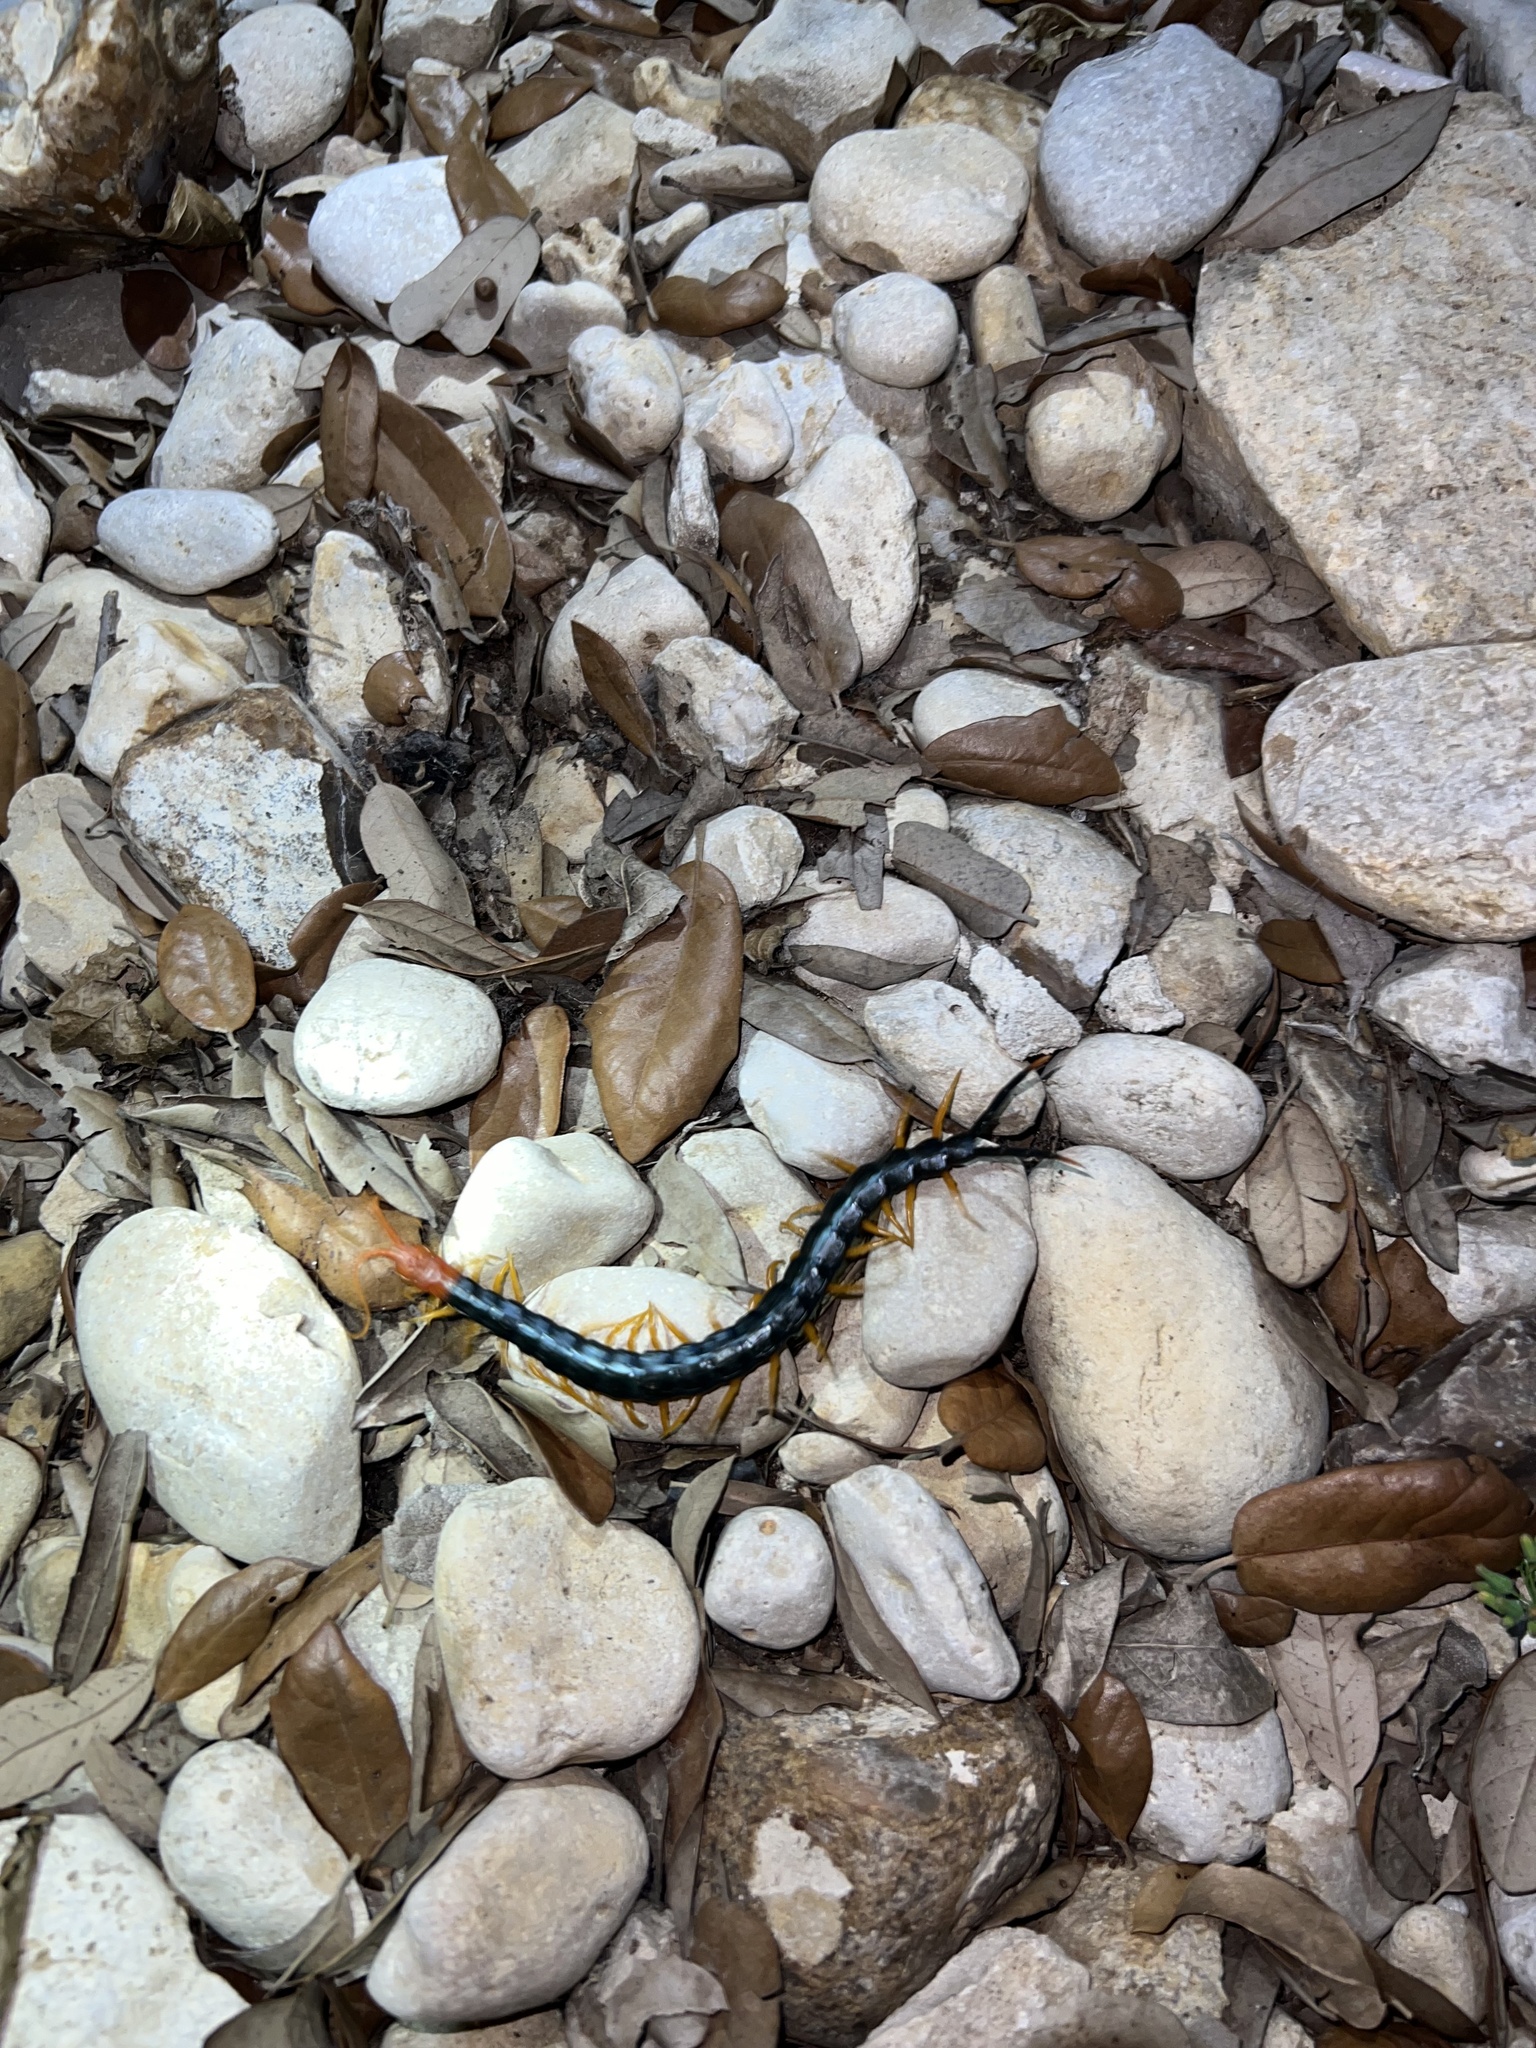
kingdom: Animalia
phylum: Arthropoda
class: Chilopoda
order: Scolopendromorpha
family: Scolopendridae
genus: Scolopendra
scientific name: Scolopendra heros
